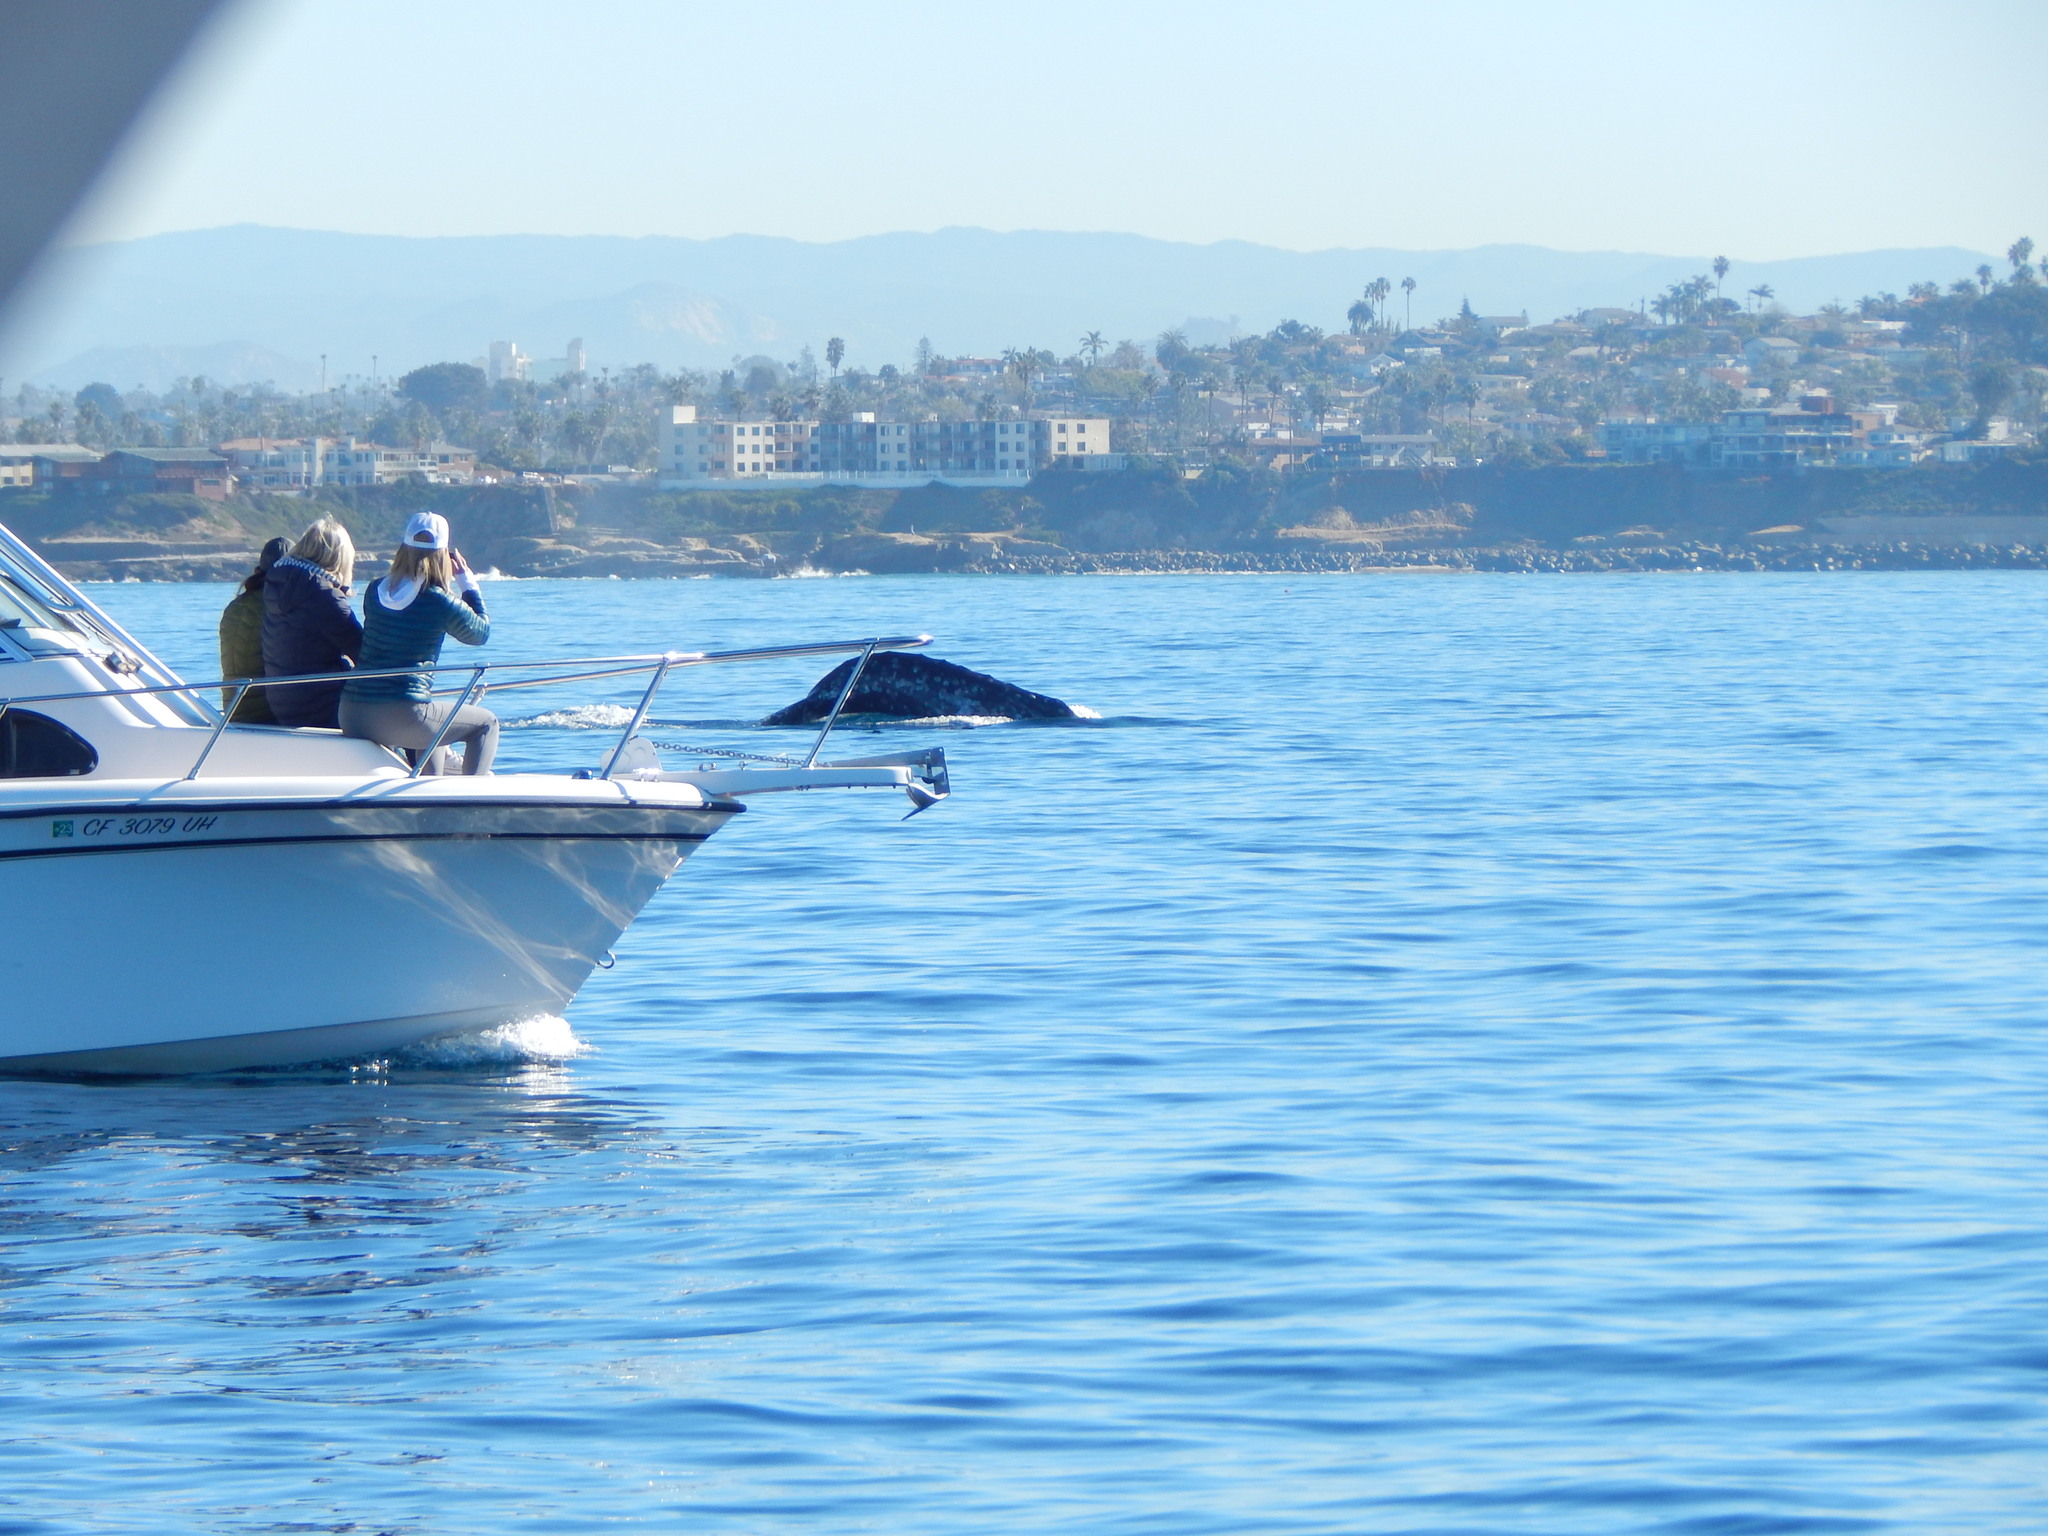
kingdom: Animalia
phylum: Chordata
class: Mammalia
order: Cetacea
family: Eschrichtiidae
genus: Eschrichtius
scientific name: Eschrichtius robustus
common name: Gray whale
